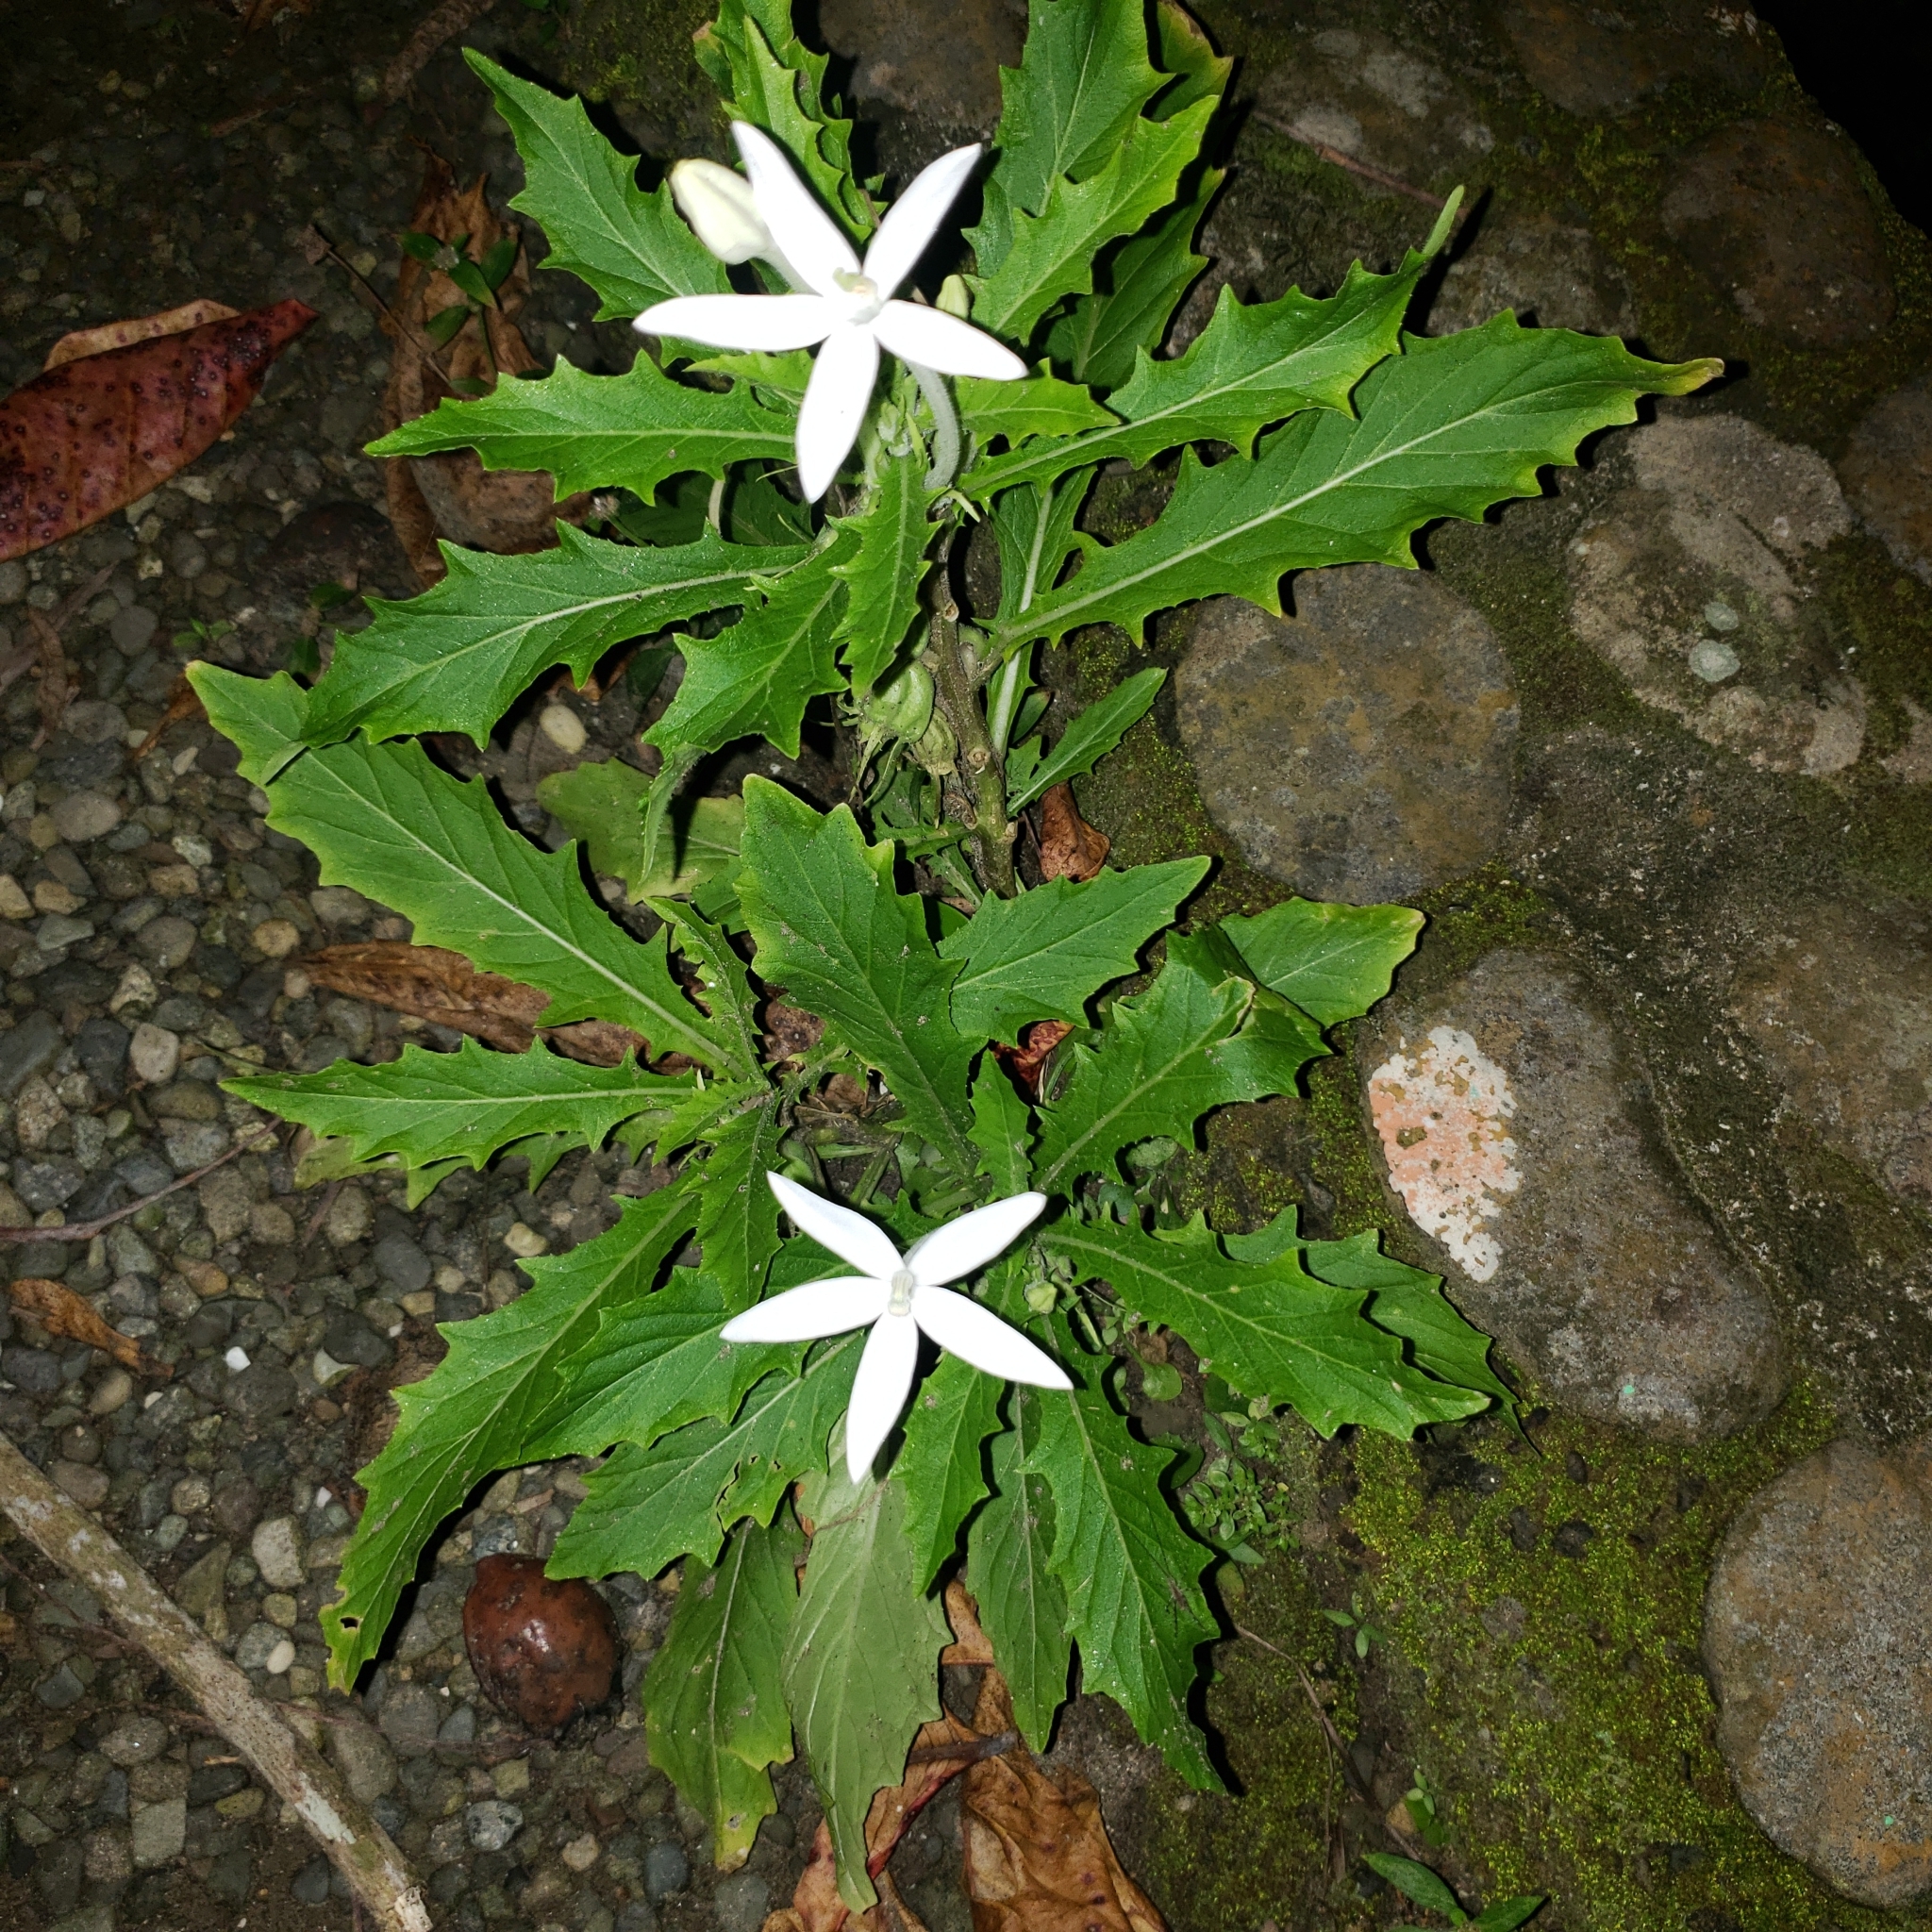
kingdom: Plantae
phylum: Tracheophyta
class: Magnoliopsida
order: Asterales
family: Campanulaceae
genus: Hippobroma
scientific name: Hippobroma longiflora
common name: Madamfate
